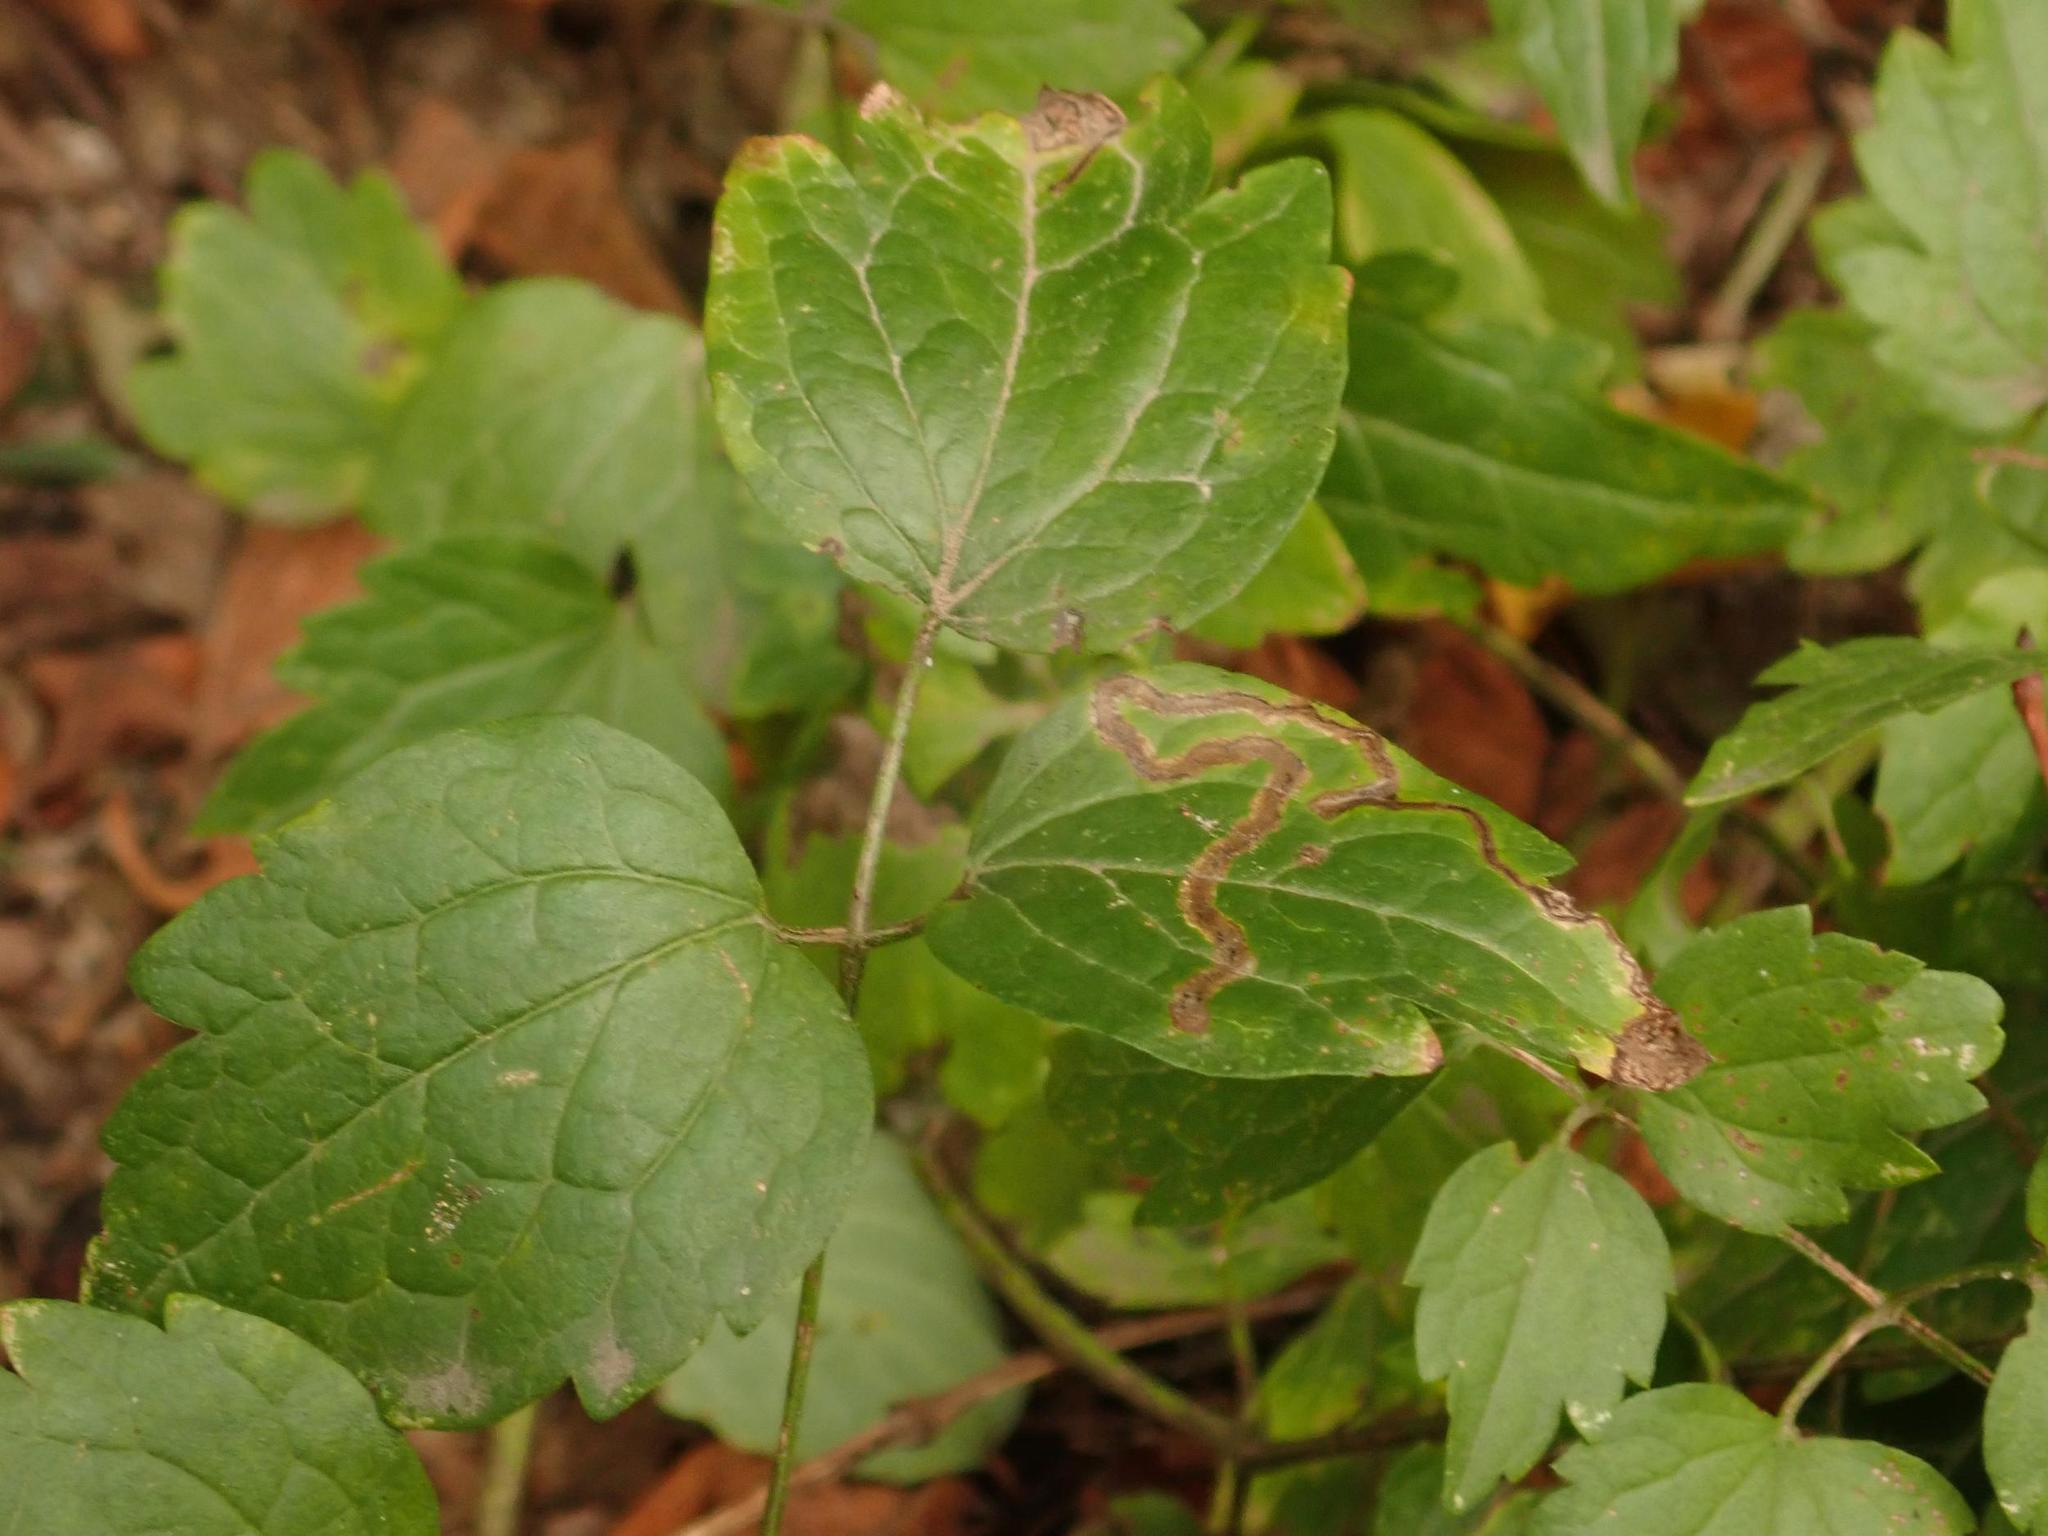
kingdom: Plantae
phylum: Tracheophyta
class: Magnoliopsida
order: Ranunculales
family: Ranunculaceae
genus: Clematis
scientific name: Clematis vitalba
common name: Evergreen clematis
